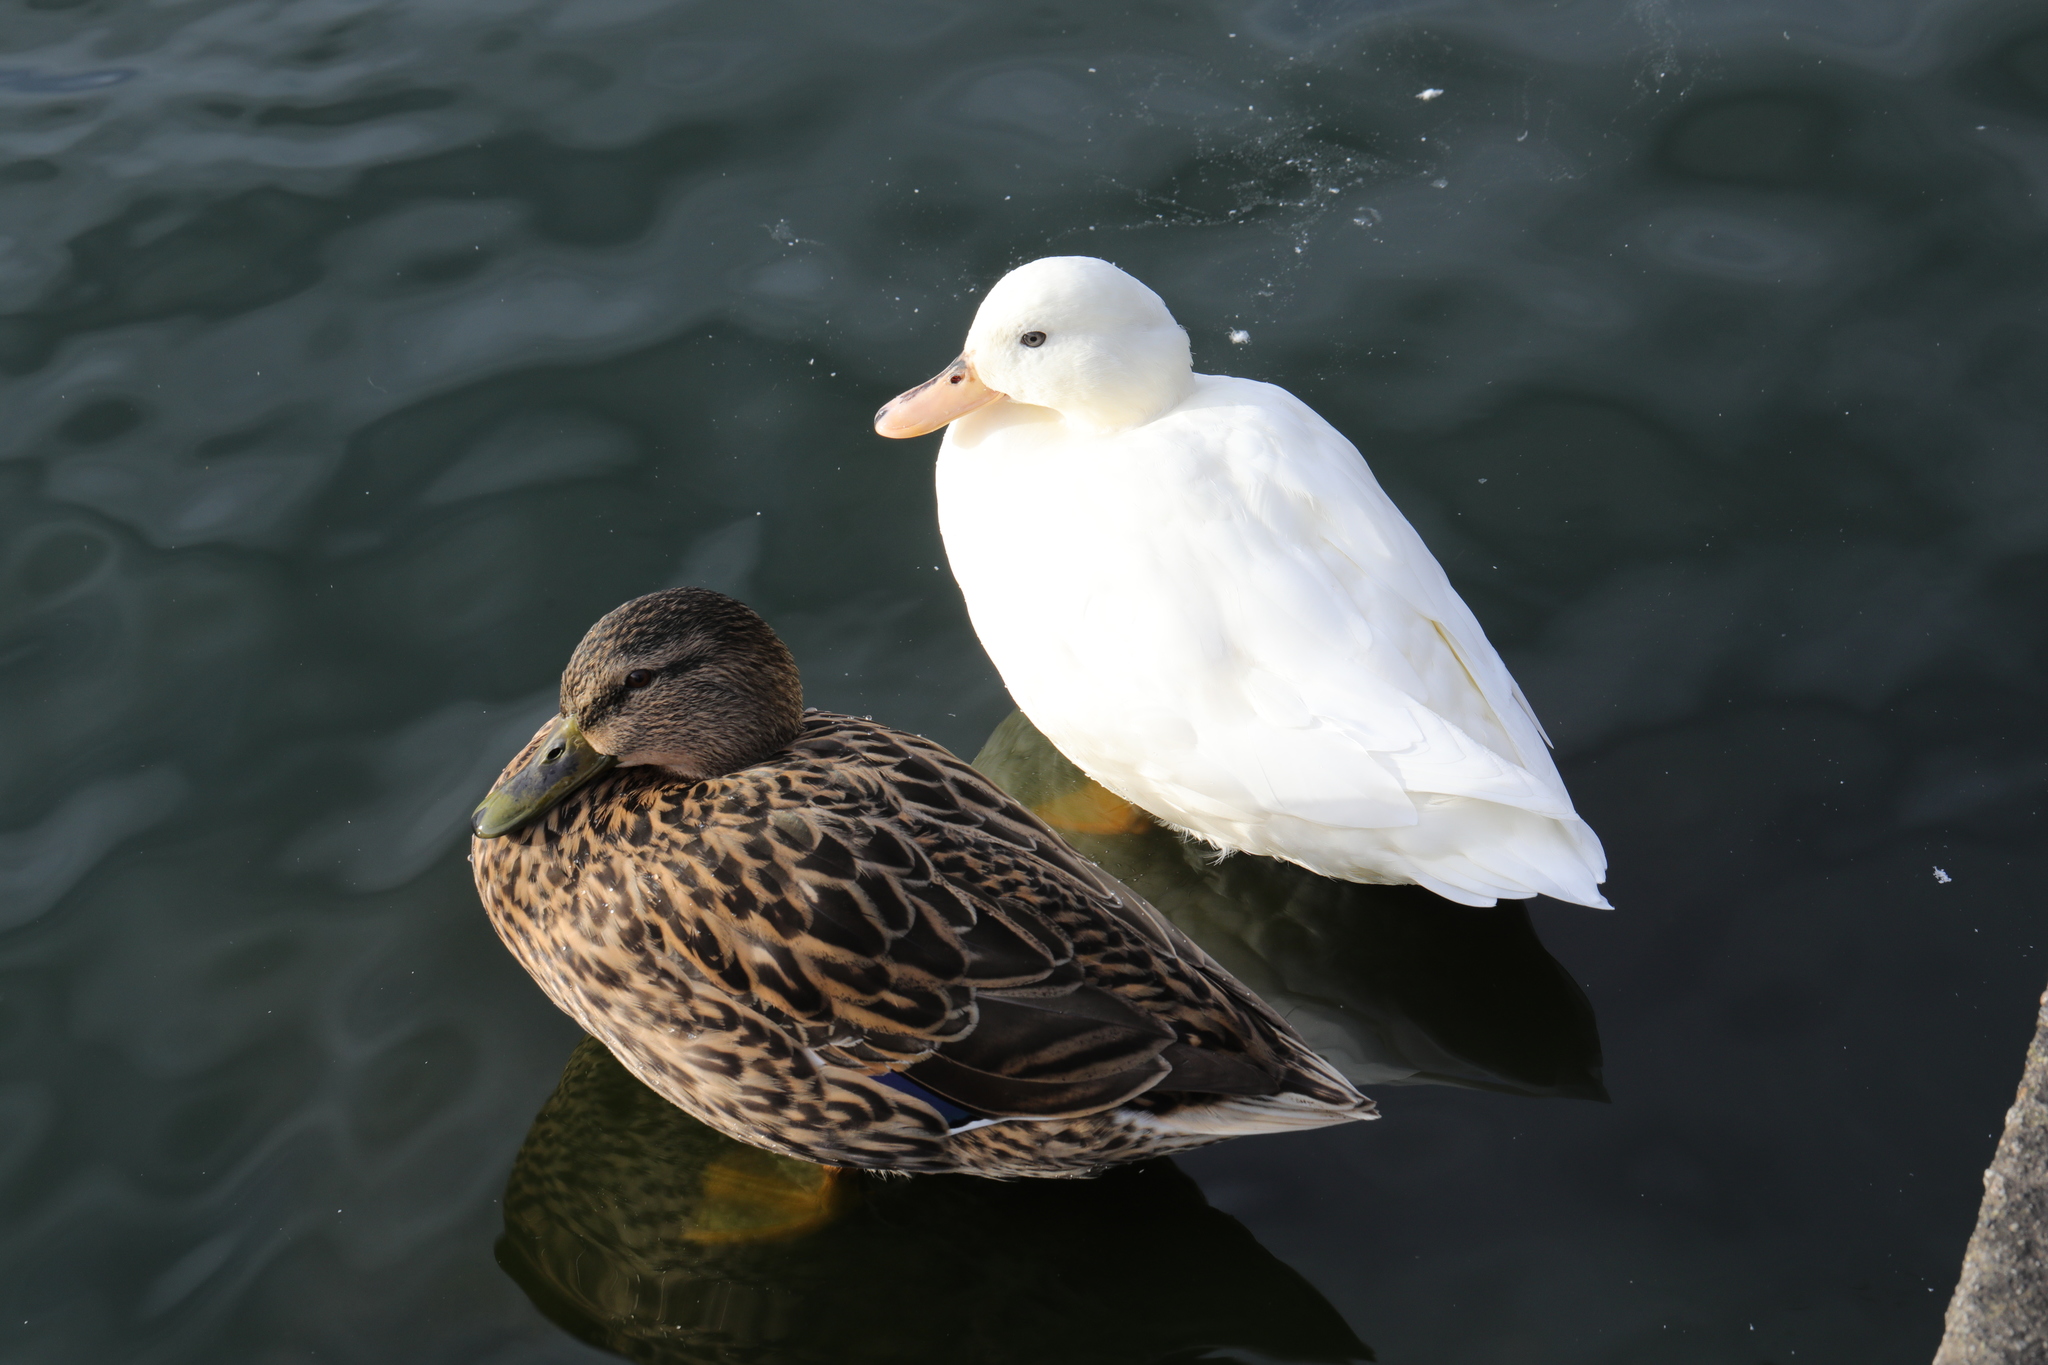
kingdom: Animalia
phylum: Chordata
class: Aves
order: Anseriformes
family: Anatidae
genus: Anas
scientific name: Anas platyrhynchos
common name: Mallard
